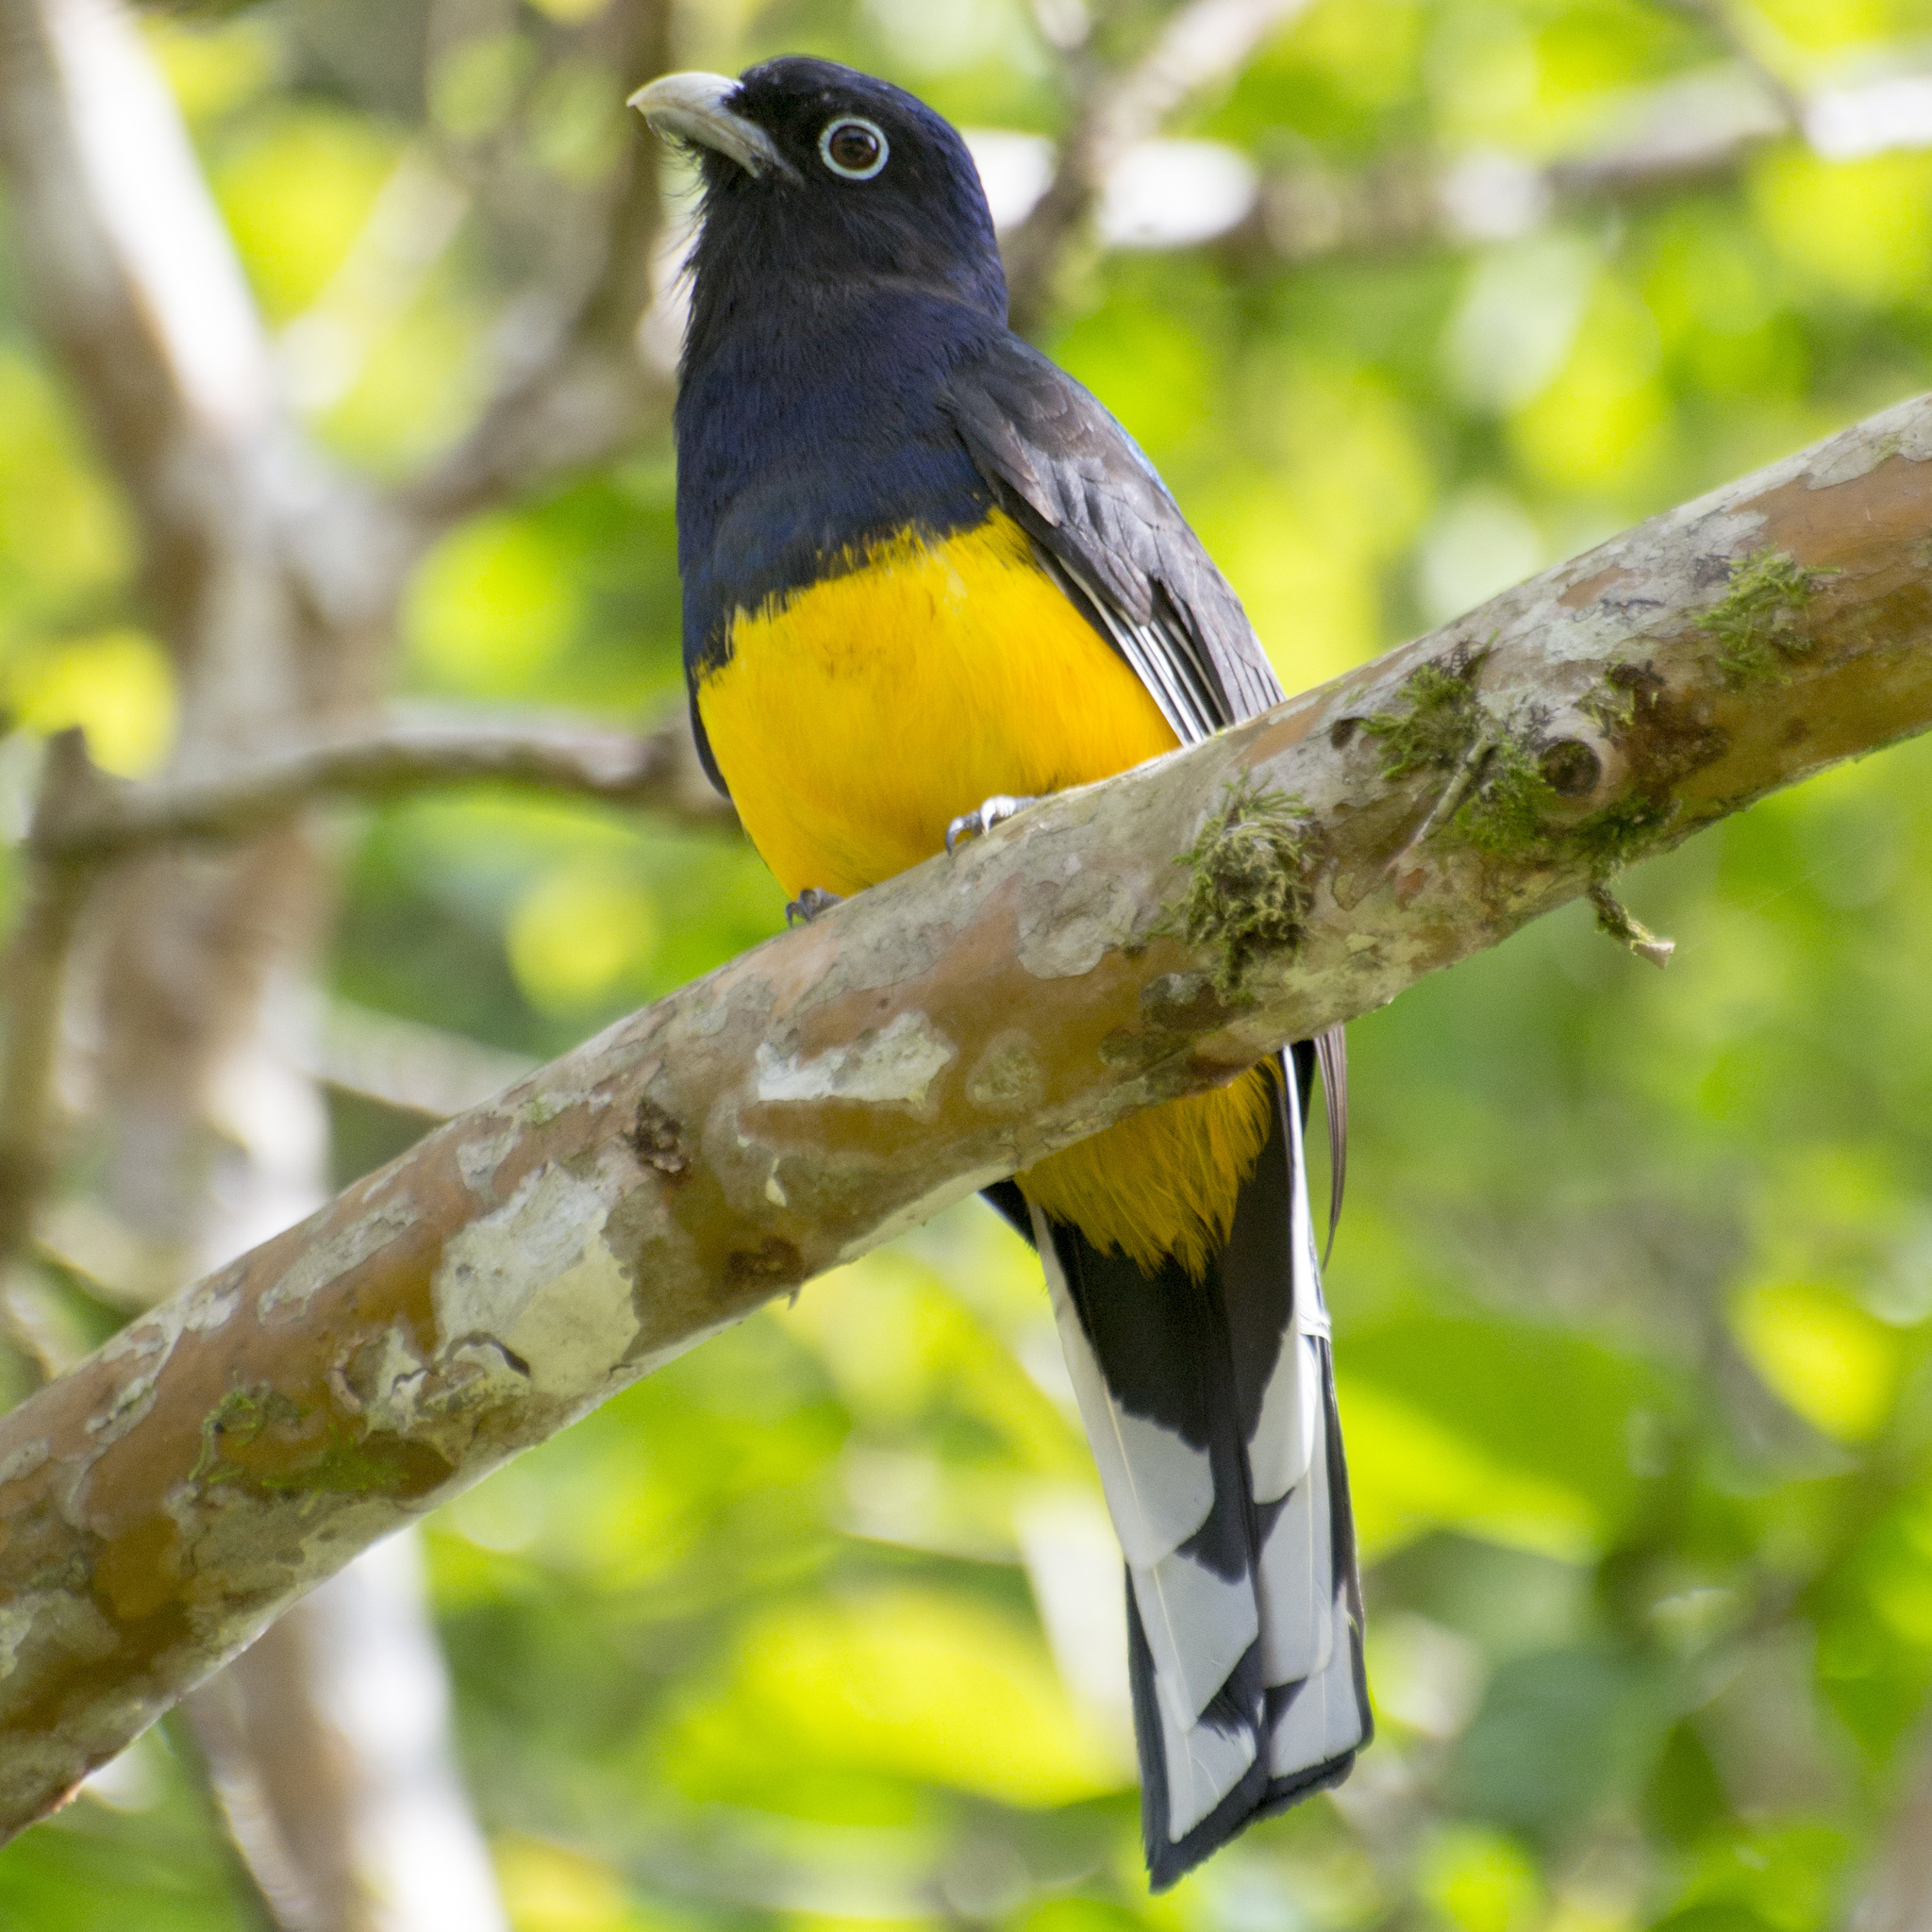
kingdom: Animalia
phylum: Chordata
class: Aves
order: Trogoniformes
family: Trogonidae
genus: Trogon
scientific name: Trogon viridis
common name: Green-backed trogon
